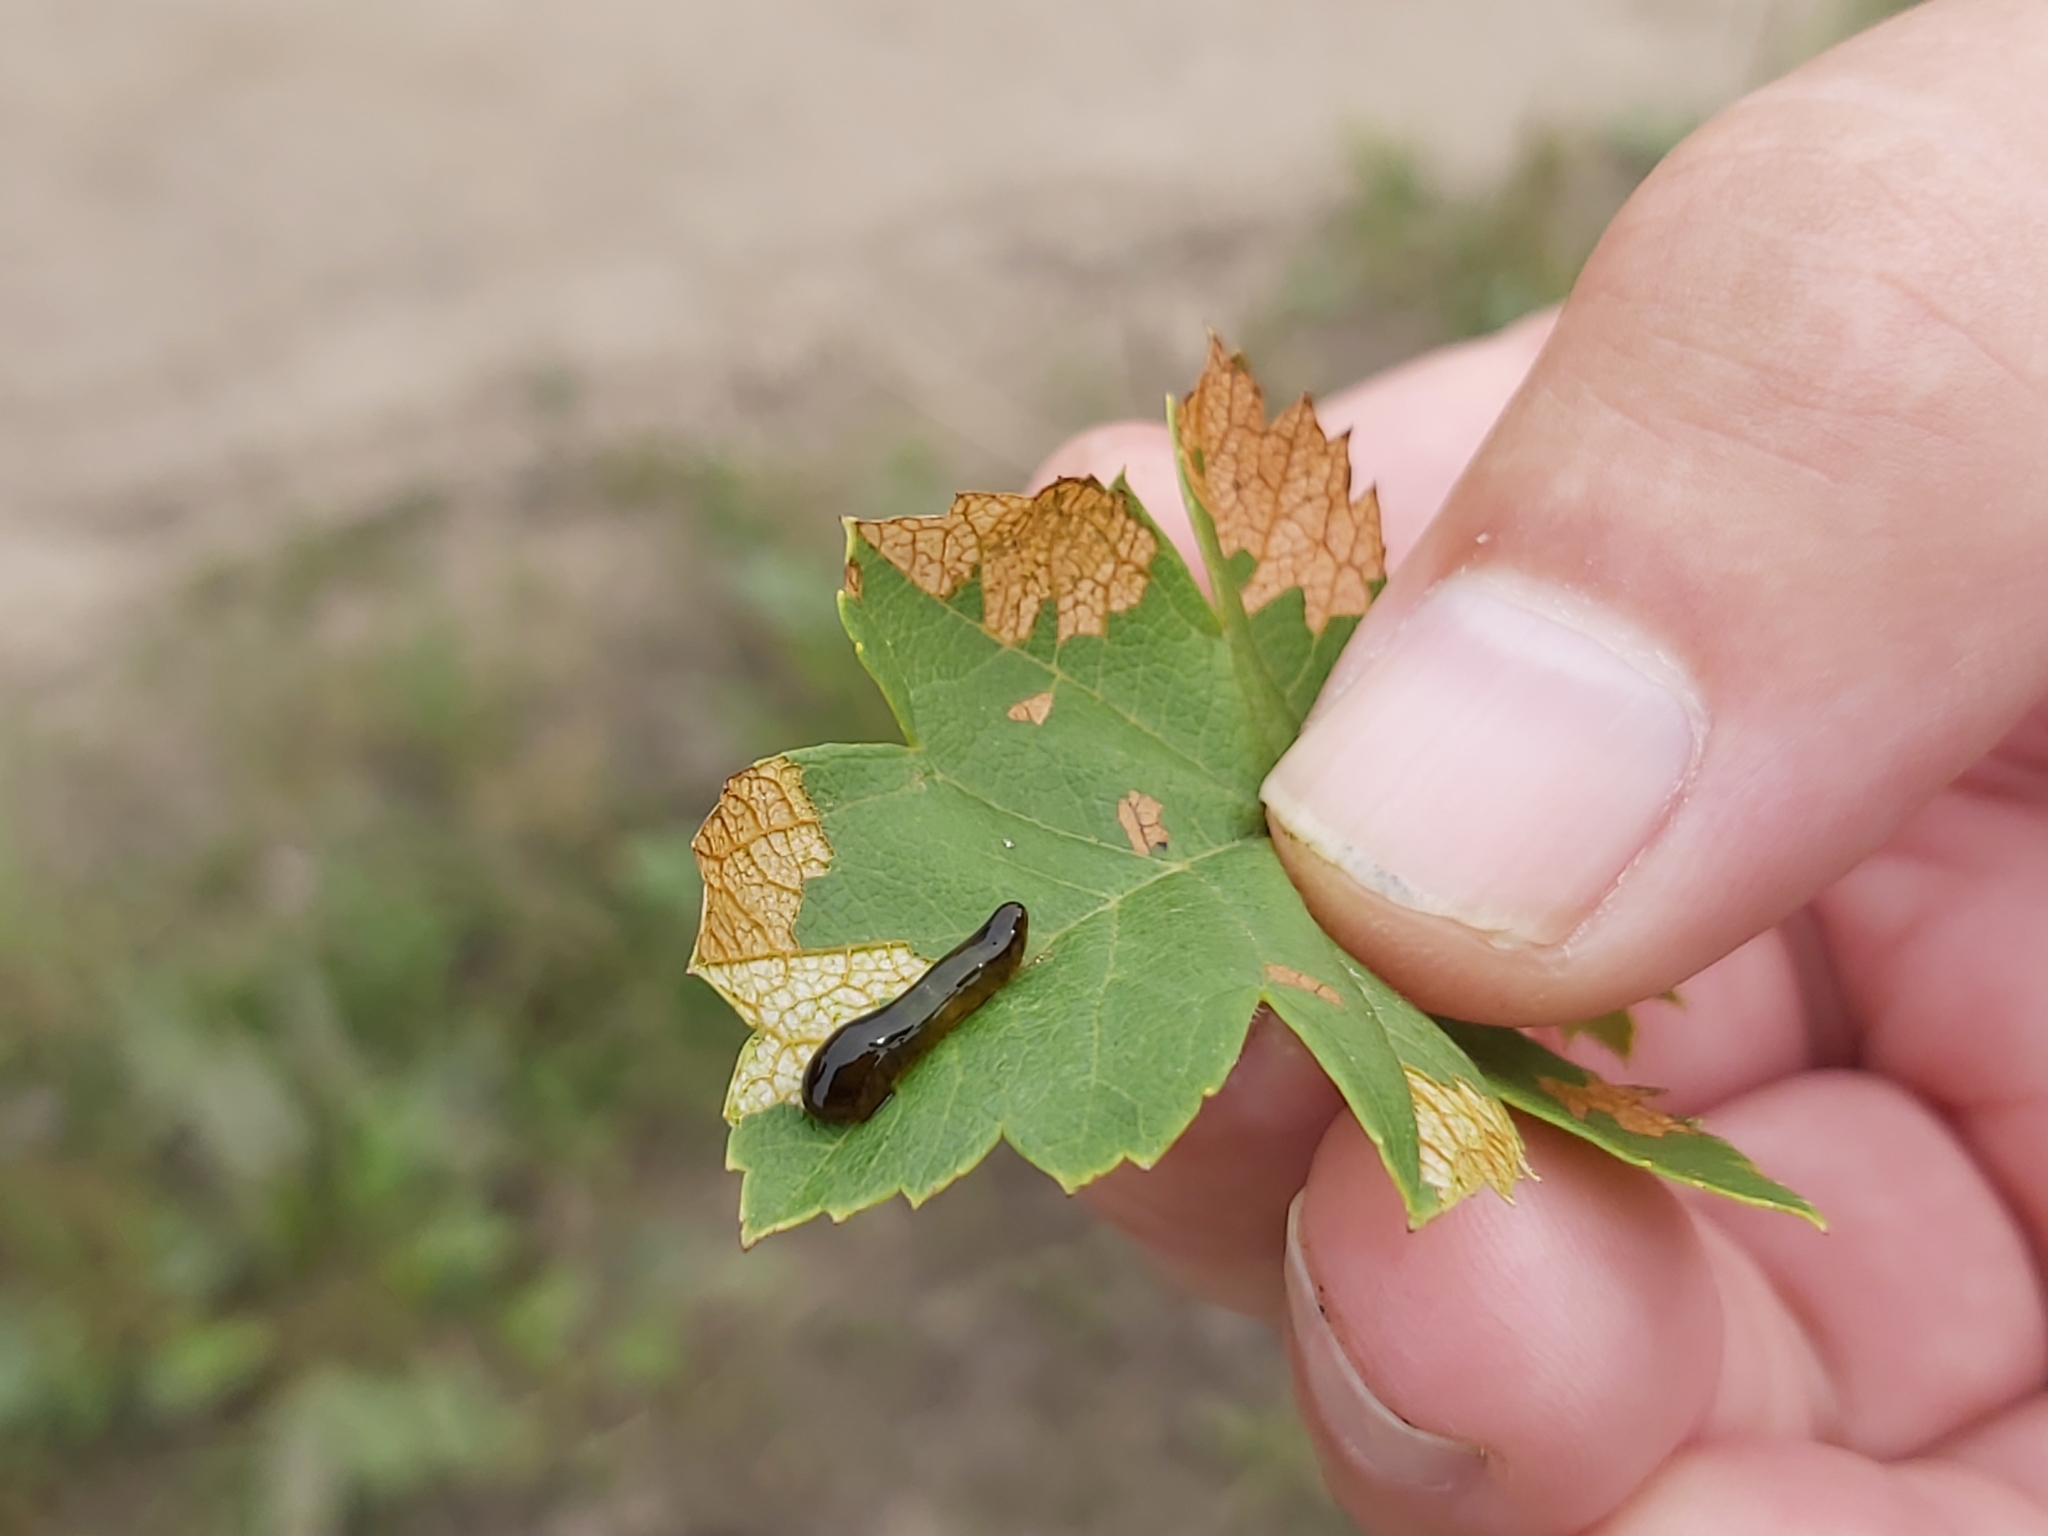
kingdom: Animalia
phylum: Arthropoda
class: Insecta
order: Hymenoptera
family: Tenthredinidae
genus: Caliroa
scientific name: Caliroa cerasi
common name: Pear sawfly
